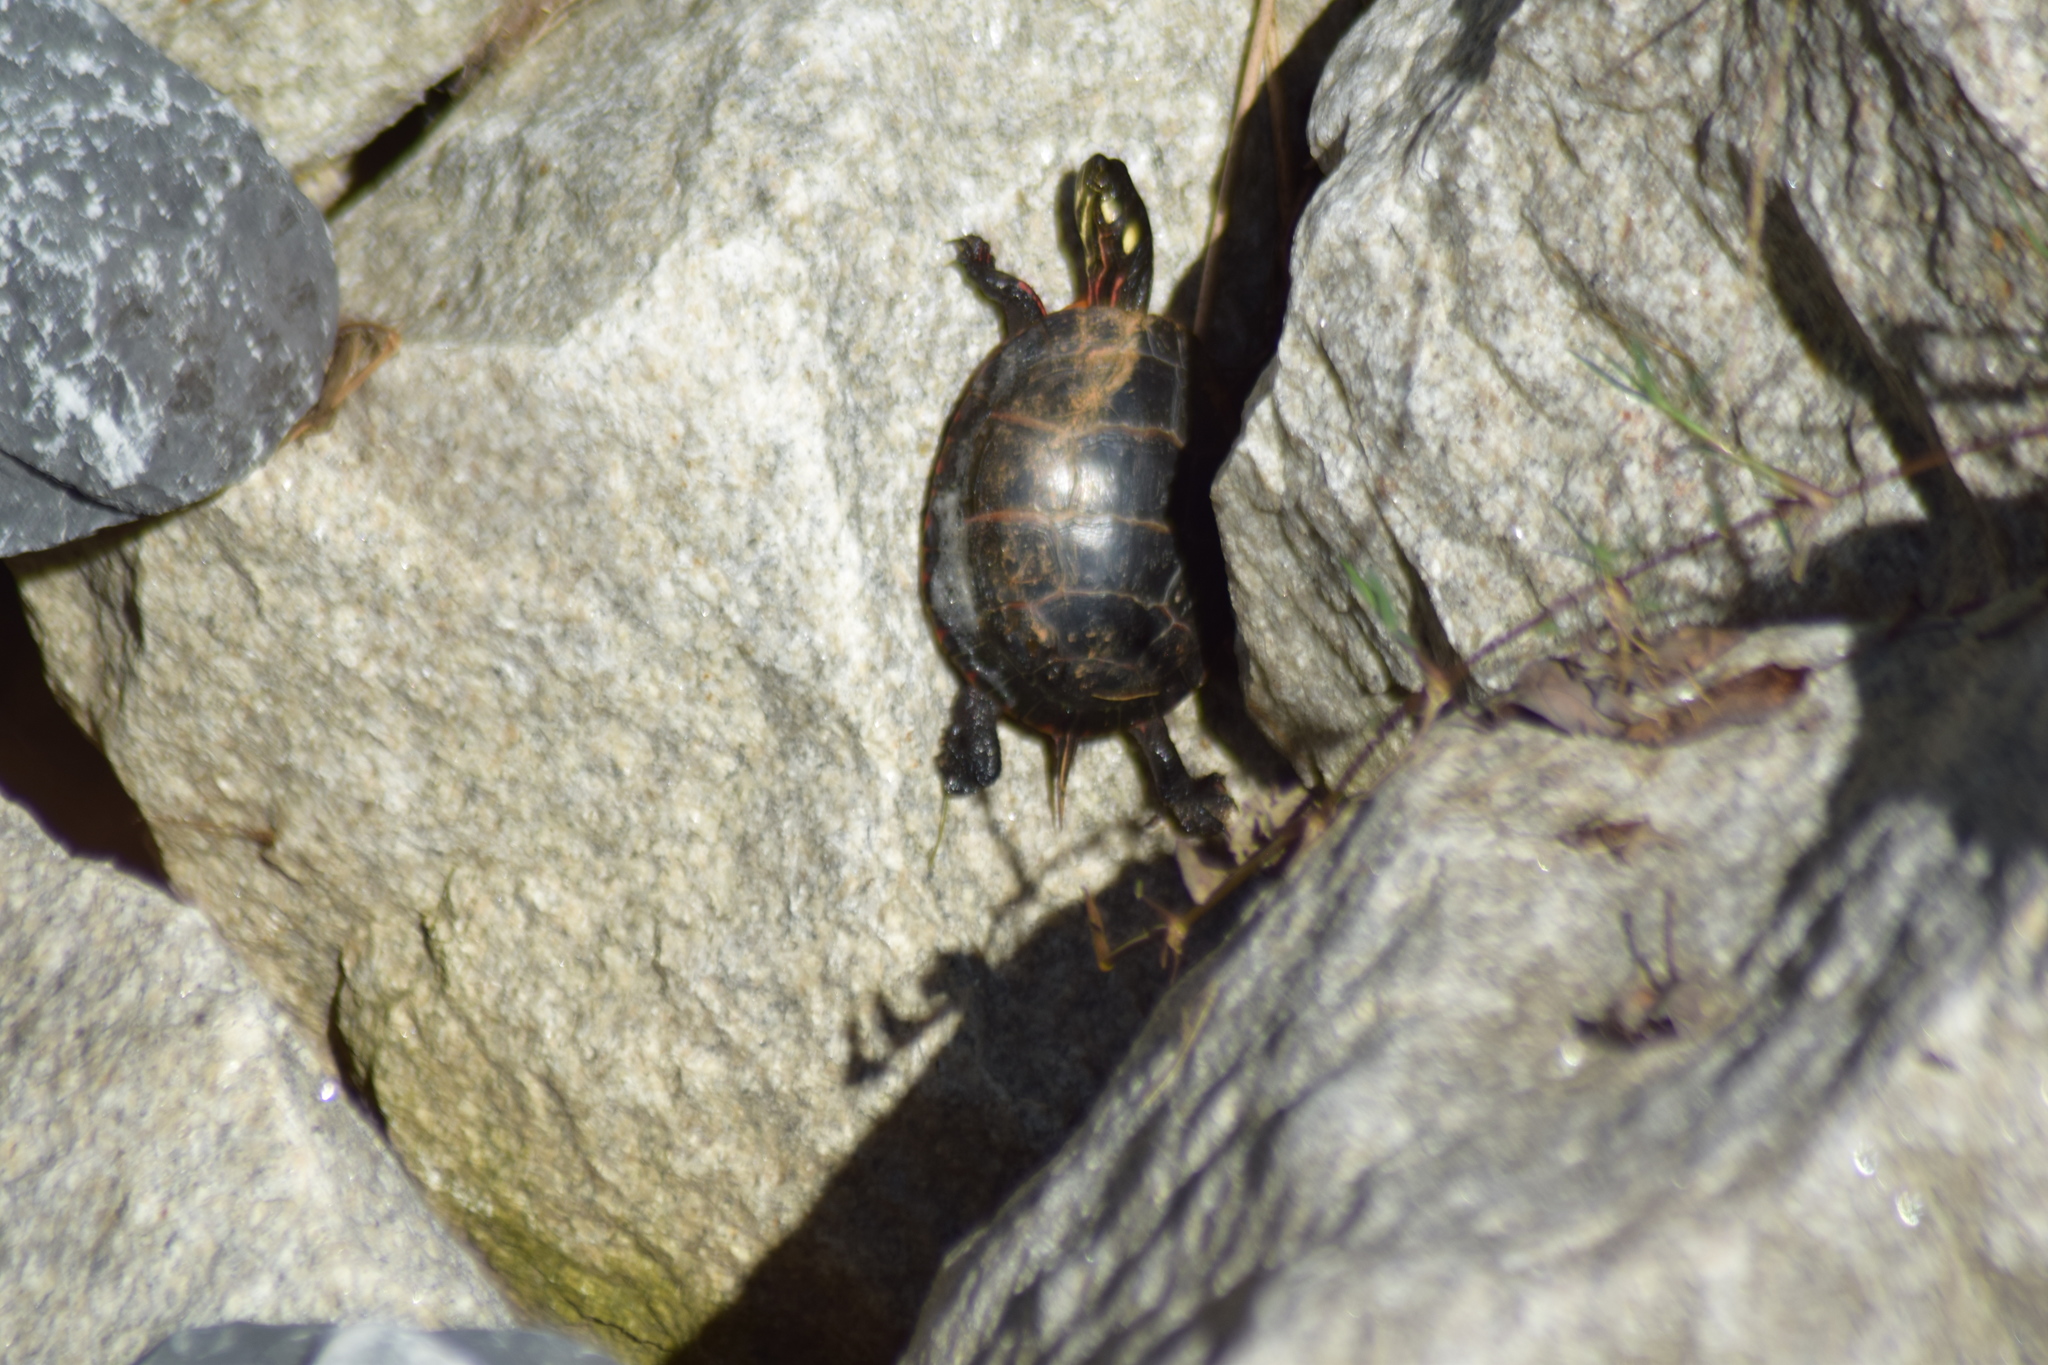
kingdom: Animalia
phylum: Chordata
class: Testudines
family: Emydidae
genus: Chrysemys
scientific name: Chrysemys picta
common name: Painted turtle
